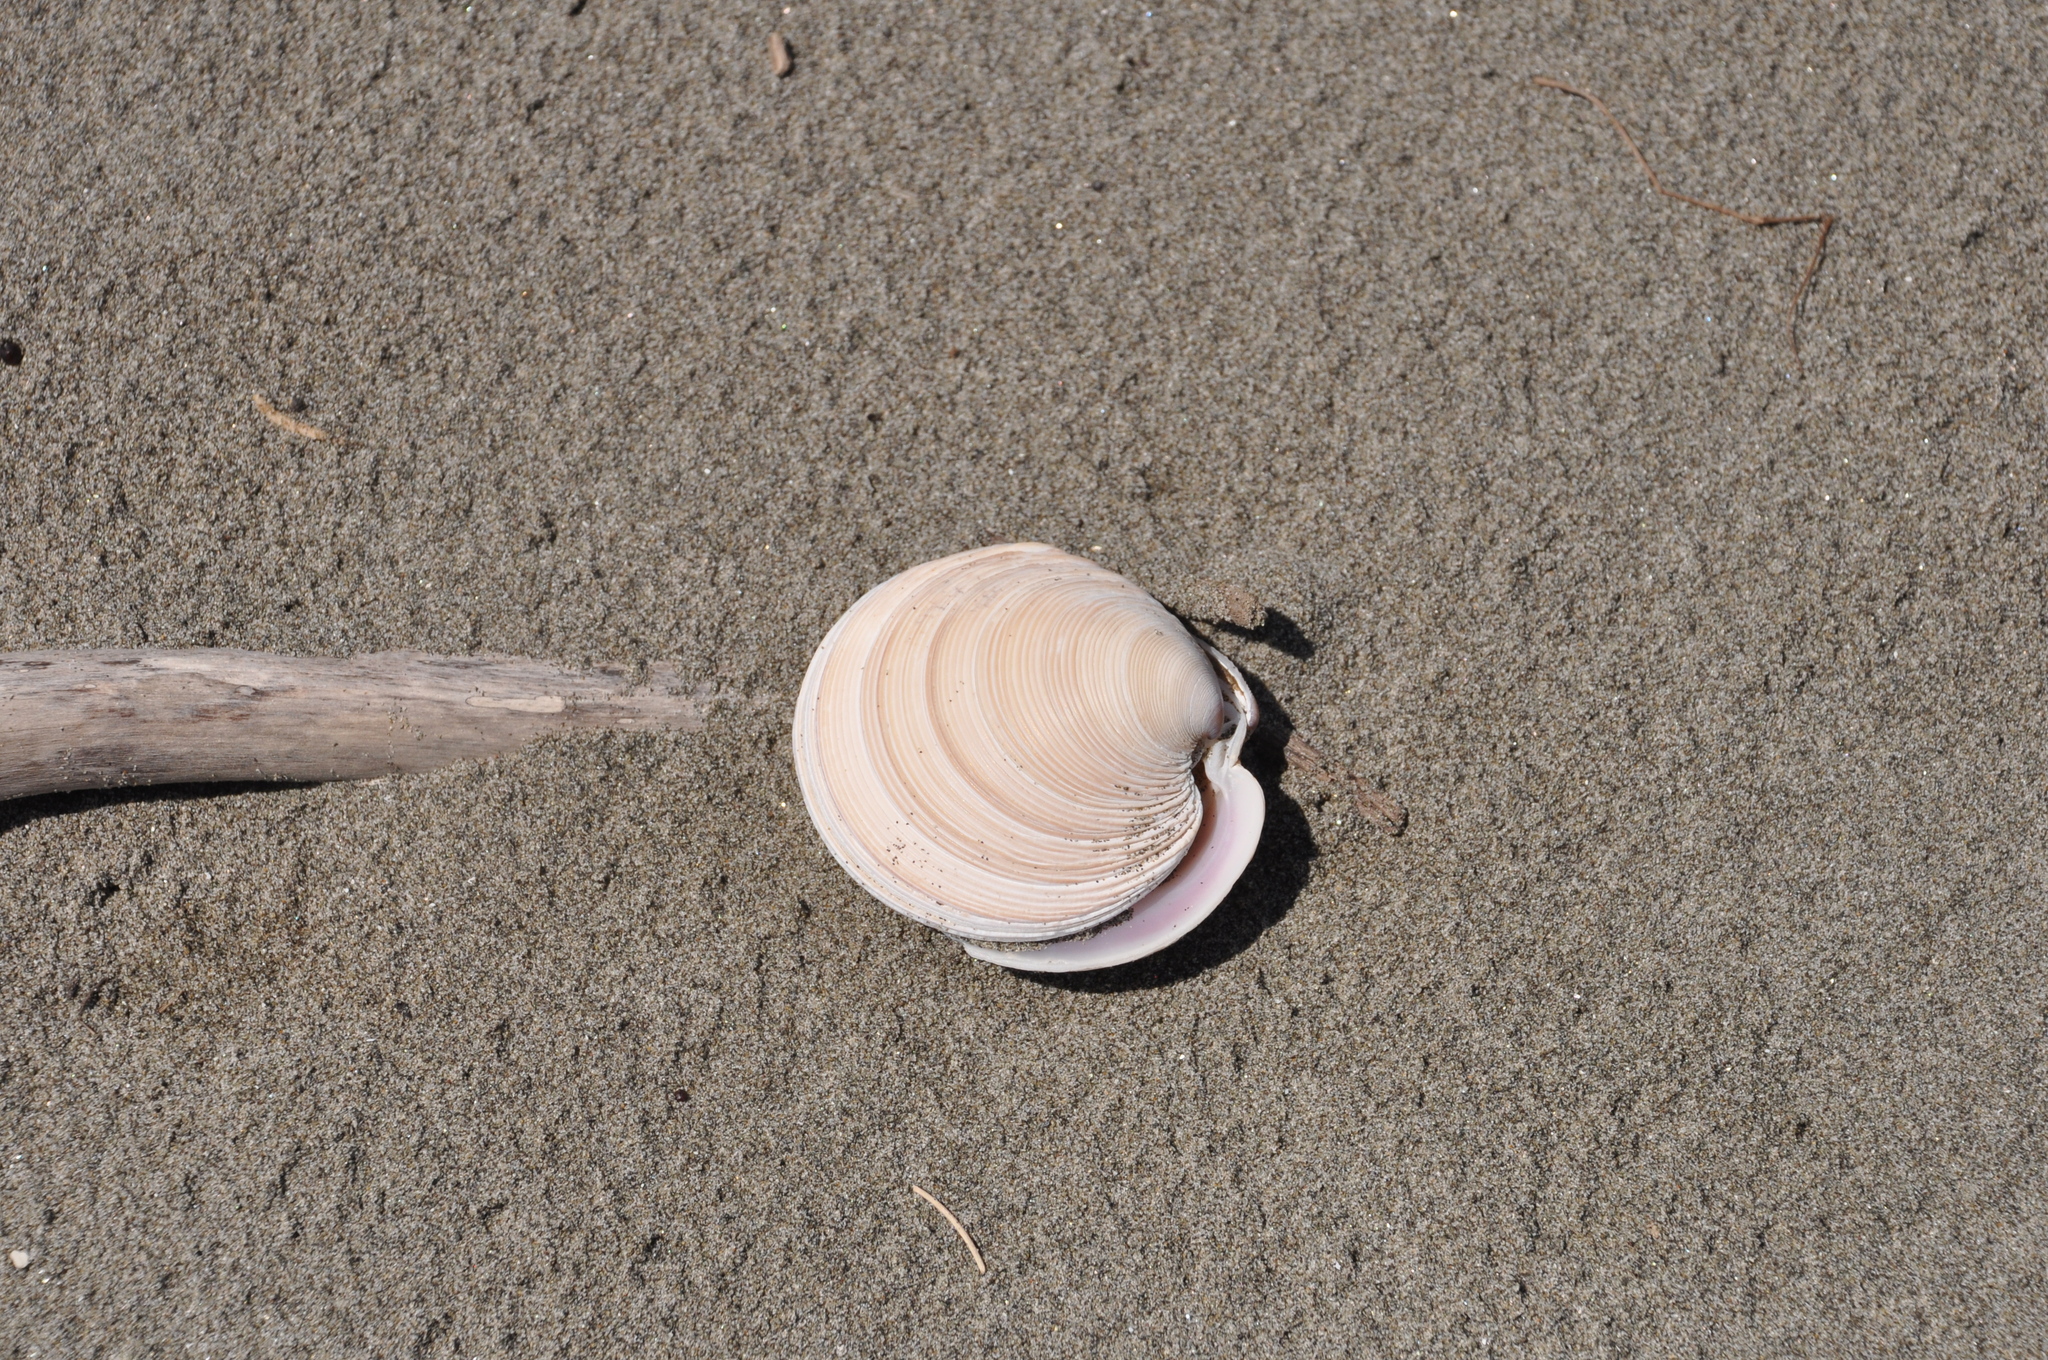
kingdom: Animalia
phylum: Mollusca
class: Bivalvia
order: Venerida
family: Veneridae
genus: Dosinia
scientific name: Dosinia anus
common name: Old-woman dosinia
